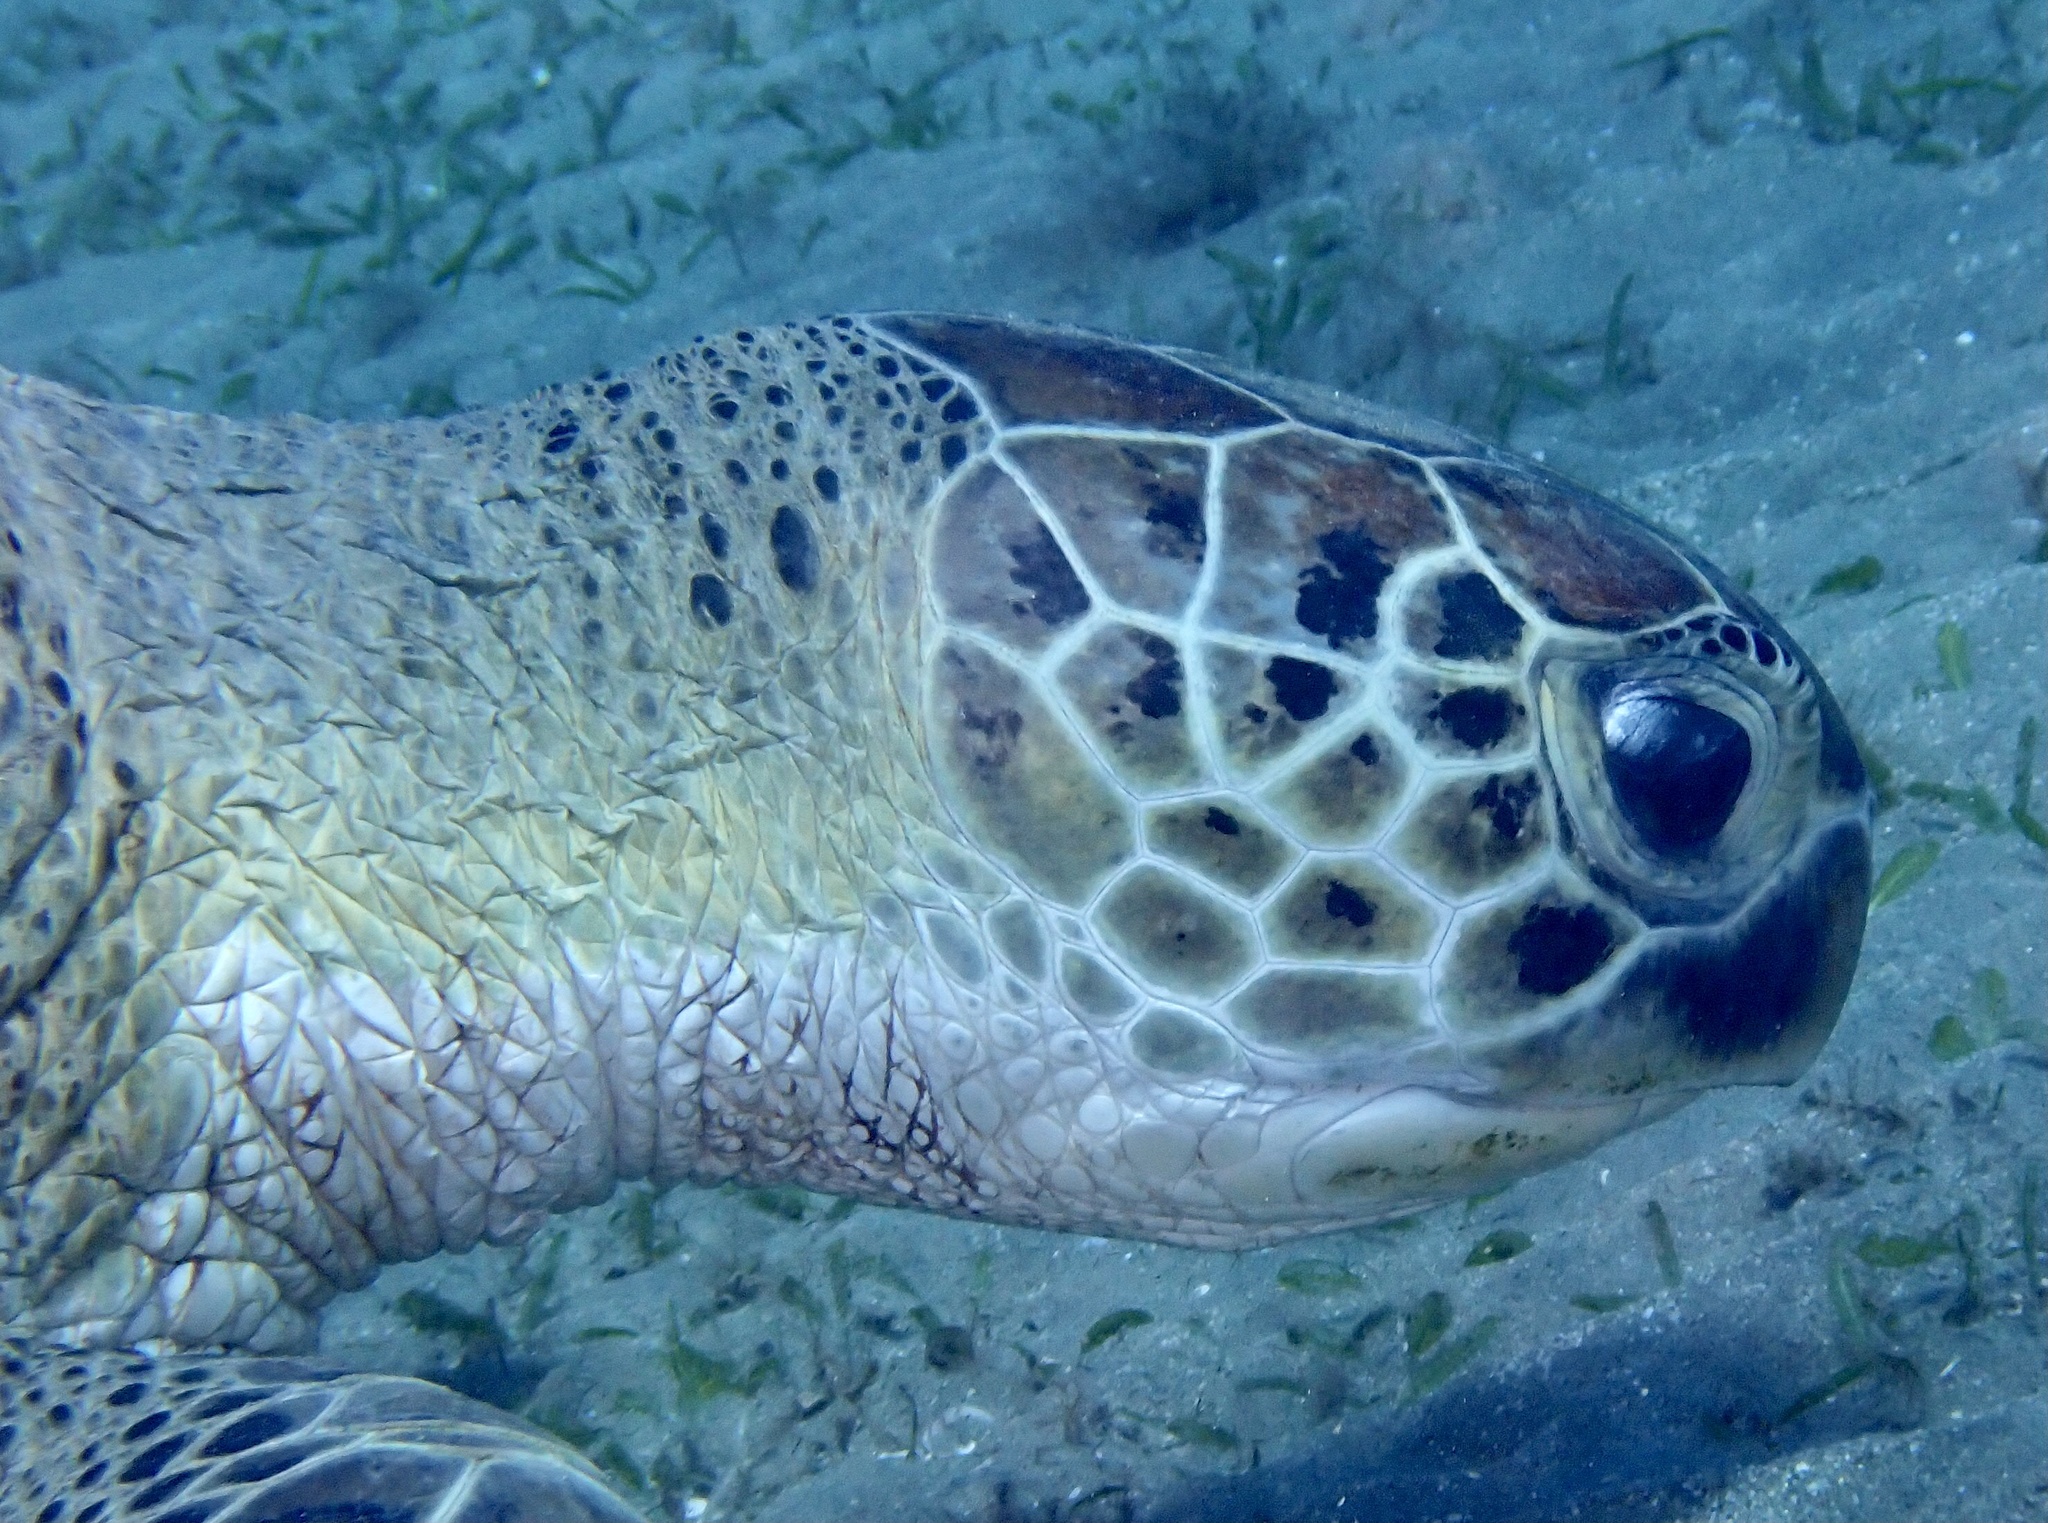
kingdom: Animalia
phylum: Chordata
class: Testudines
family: Cheloniidae
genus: Chelonia
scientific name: Chelonia mydas
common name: Green turtle
